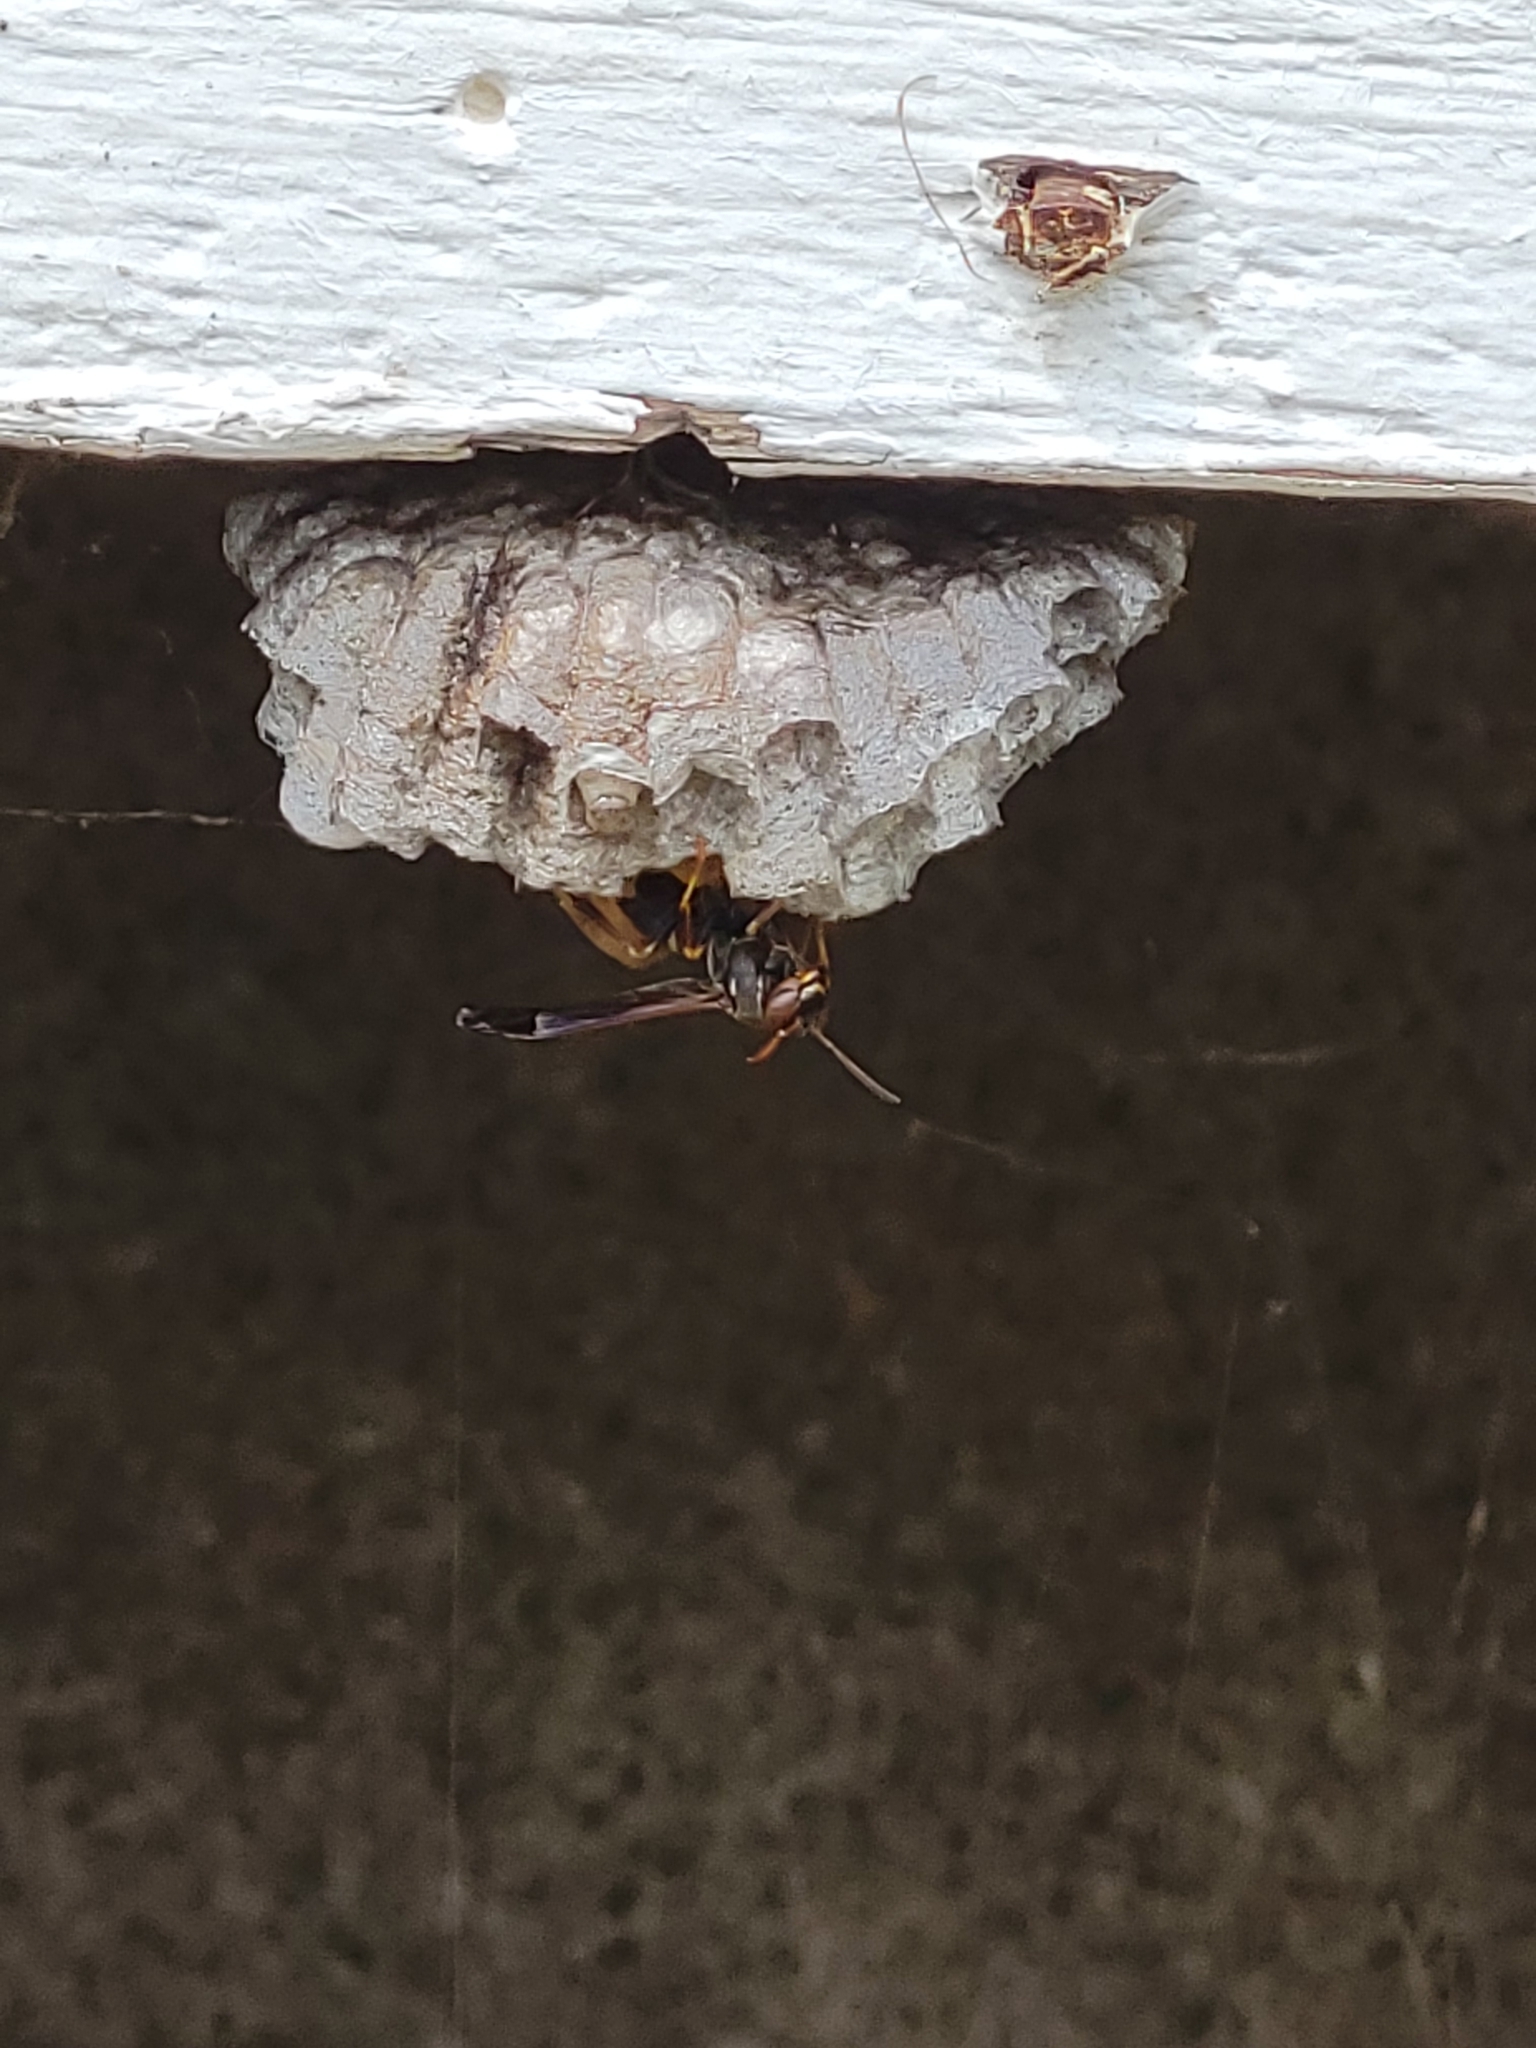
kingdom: Animalia
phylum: Arthropoda
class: Insecta
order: Hymenoptera
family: Eumenidae
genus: Polistes
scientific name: Polistes fuscatus
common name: Dark paper wasp
